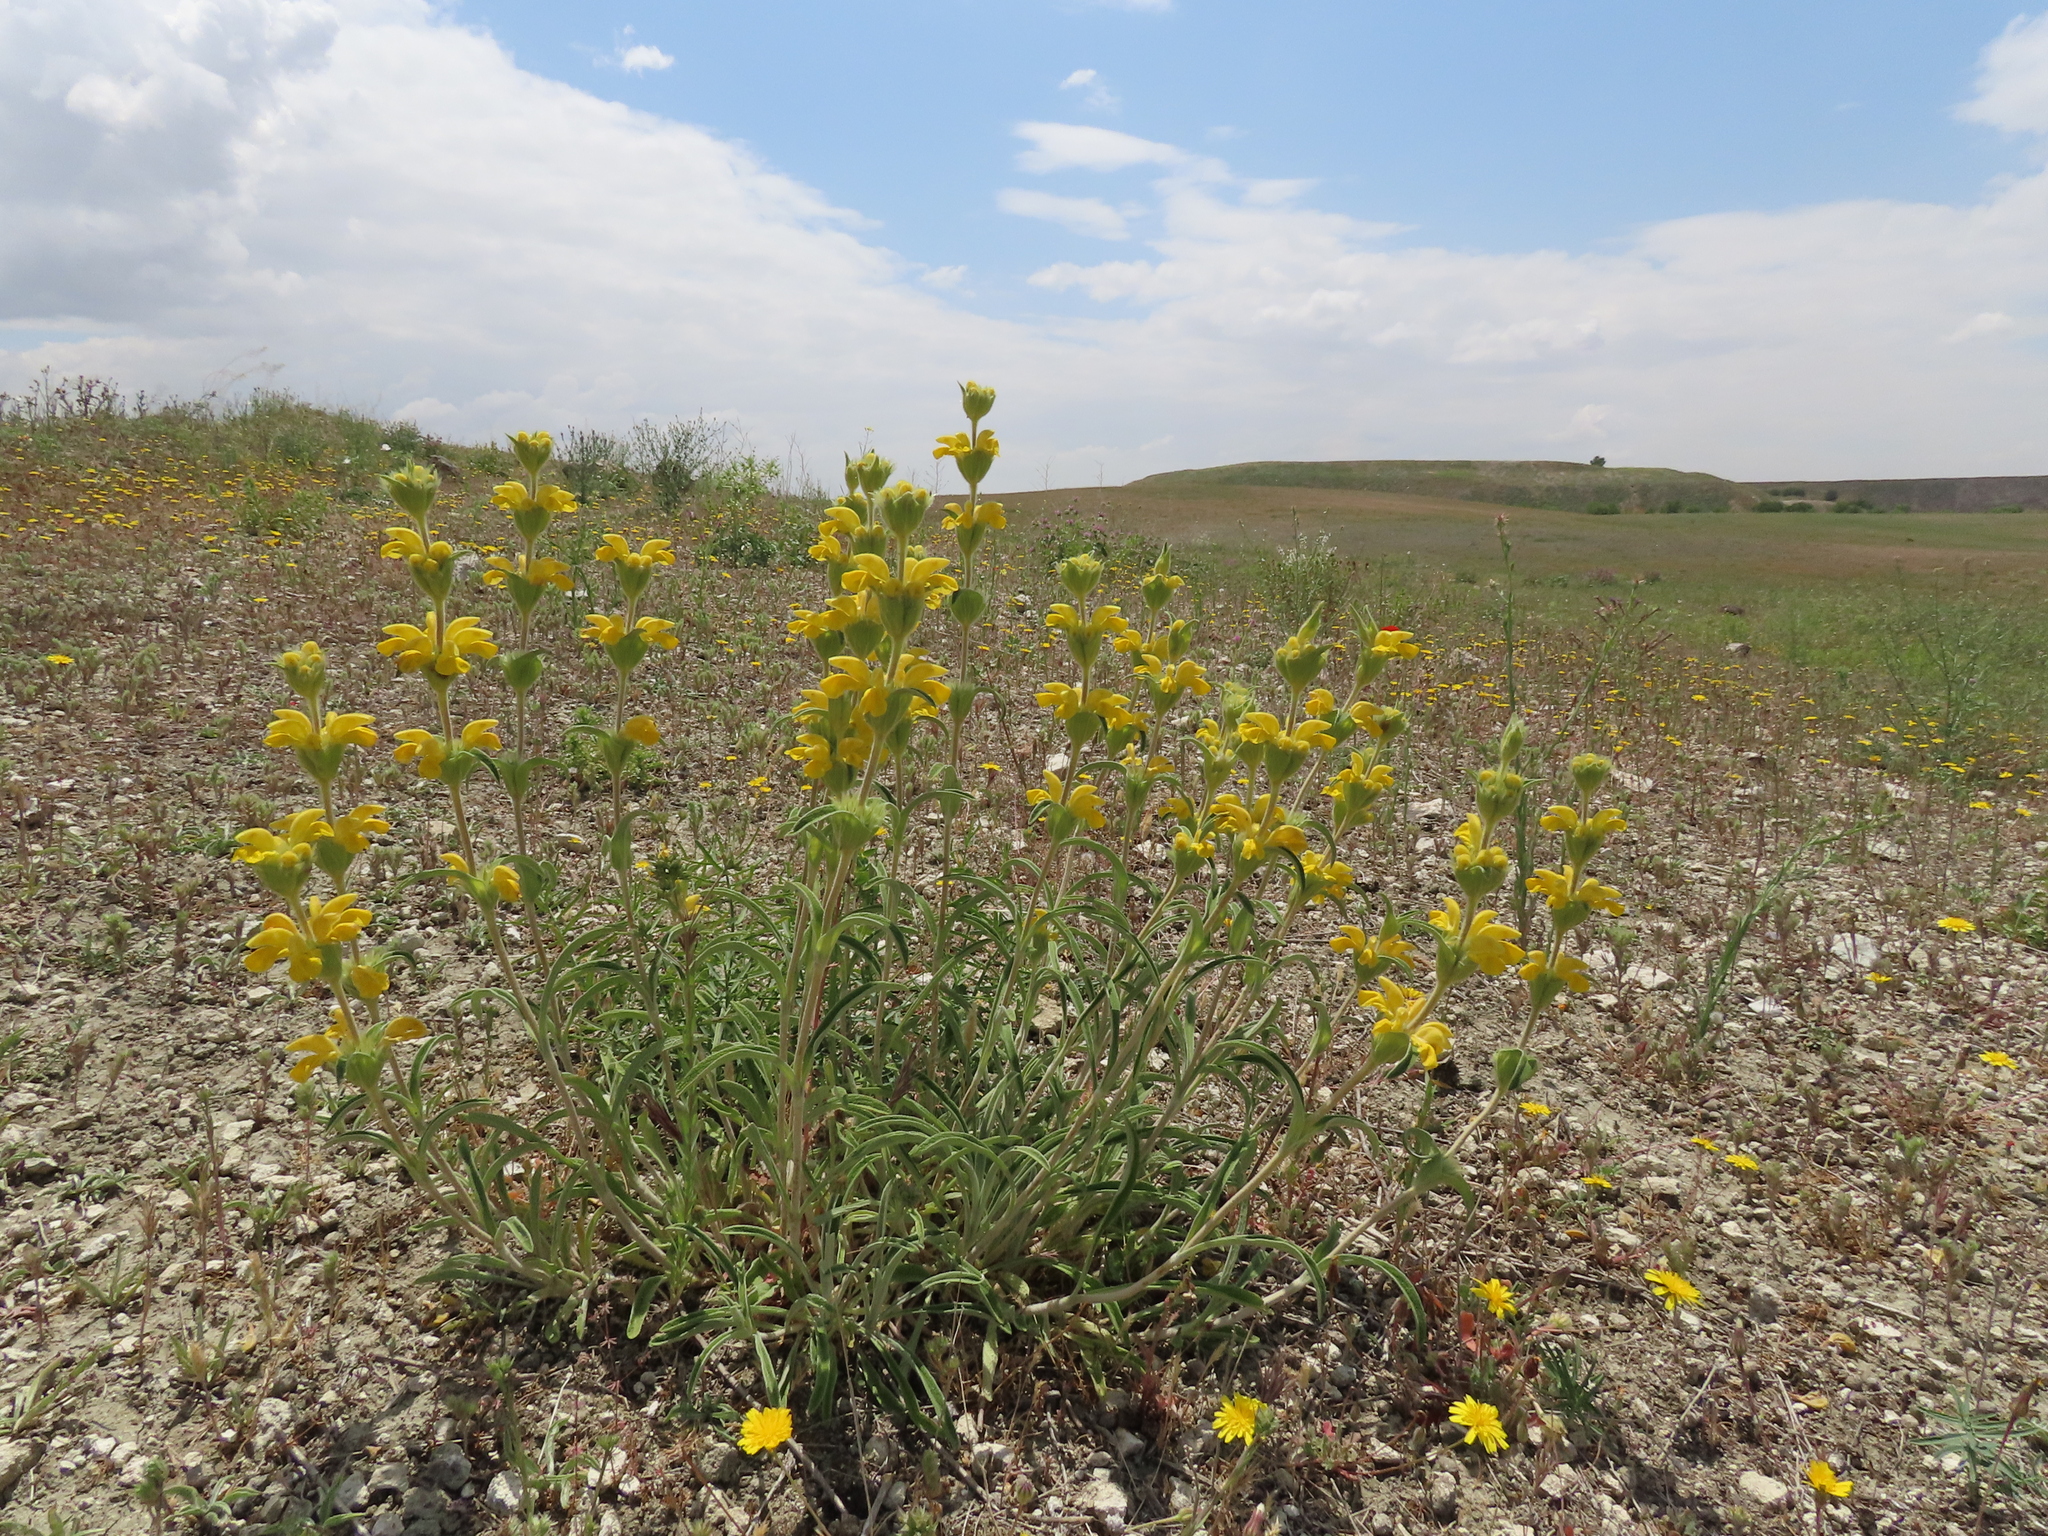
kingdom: Plantae
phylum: Tracheophyta
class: Magnoliopsida
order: Lamiales
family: Lamiaceae
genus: Phlomis
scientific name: Phlomis lychnitis
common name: Lampwickplant
